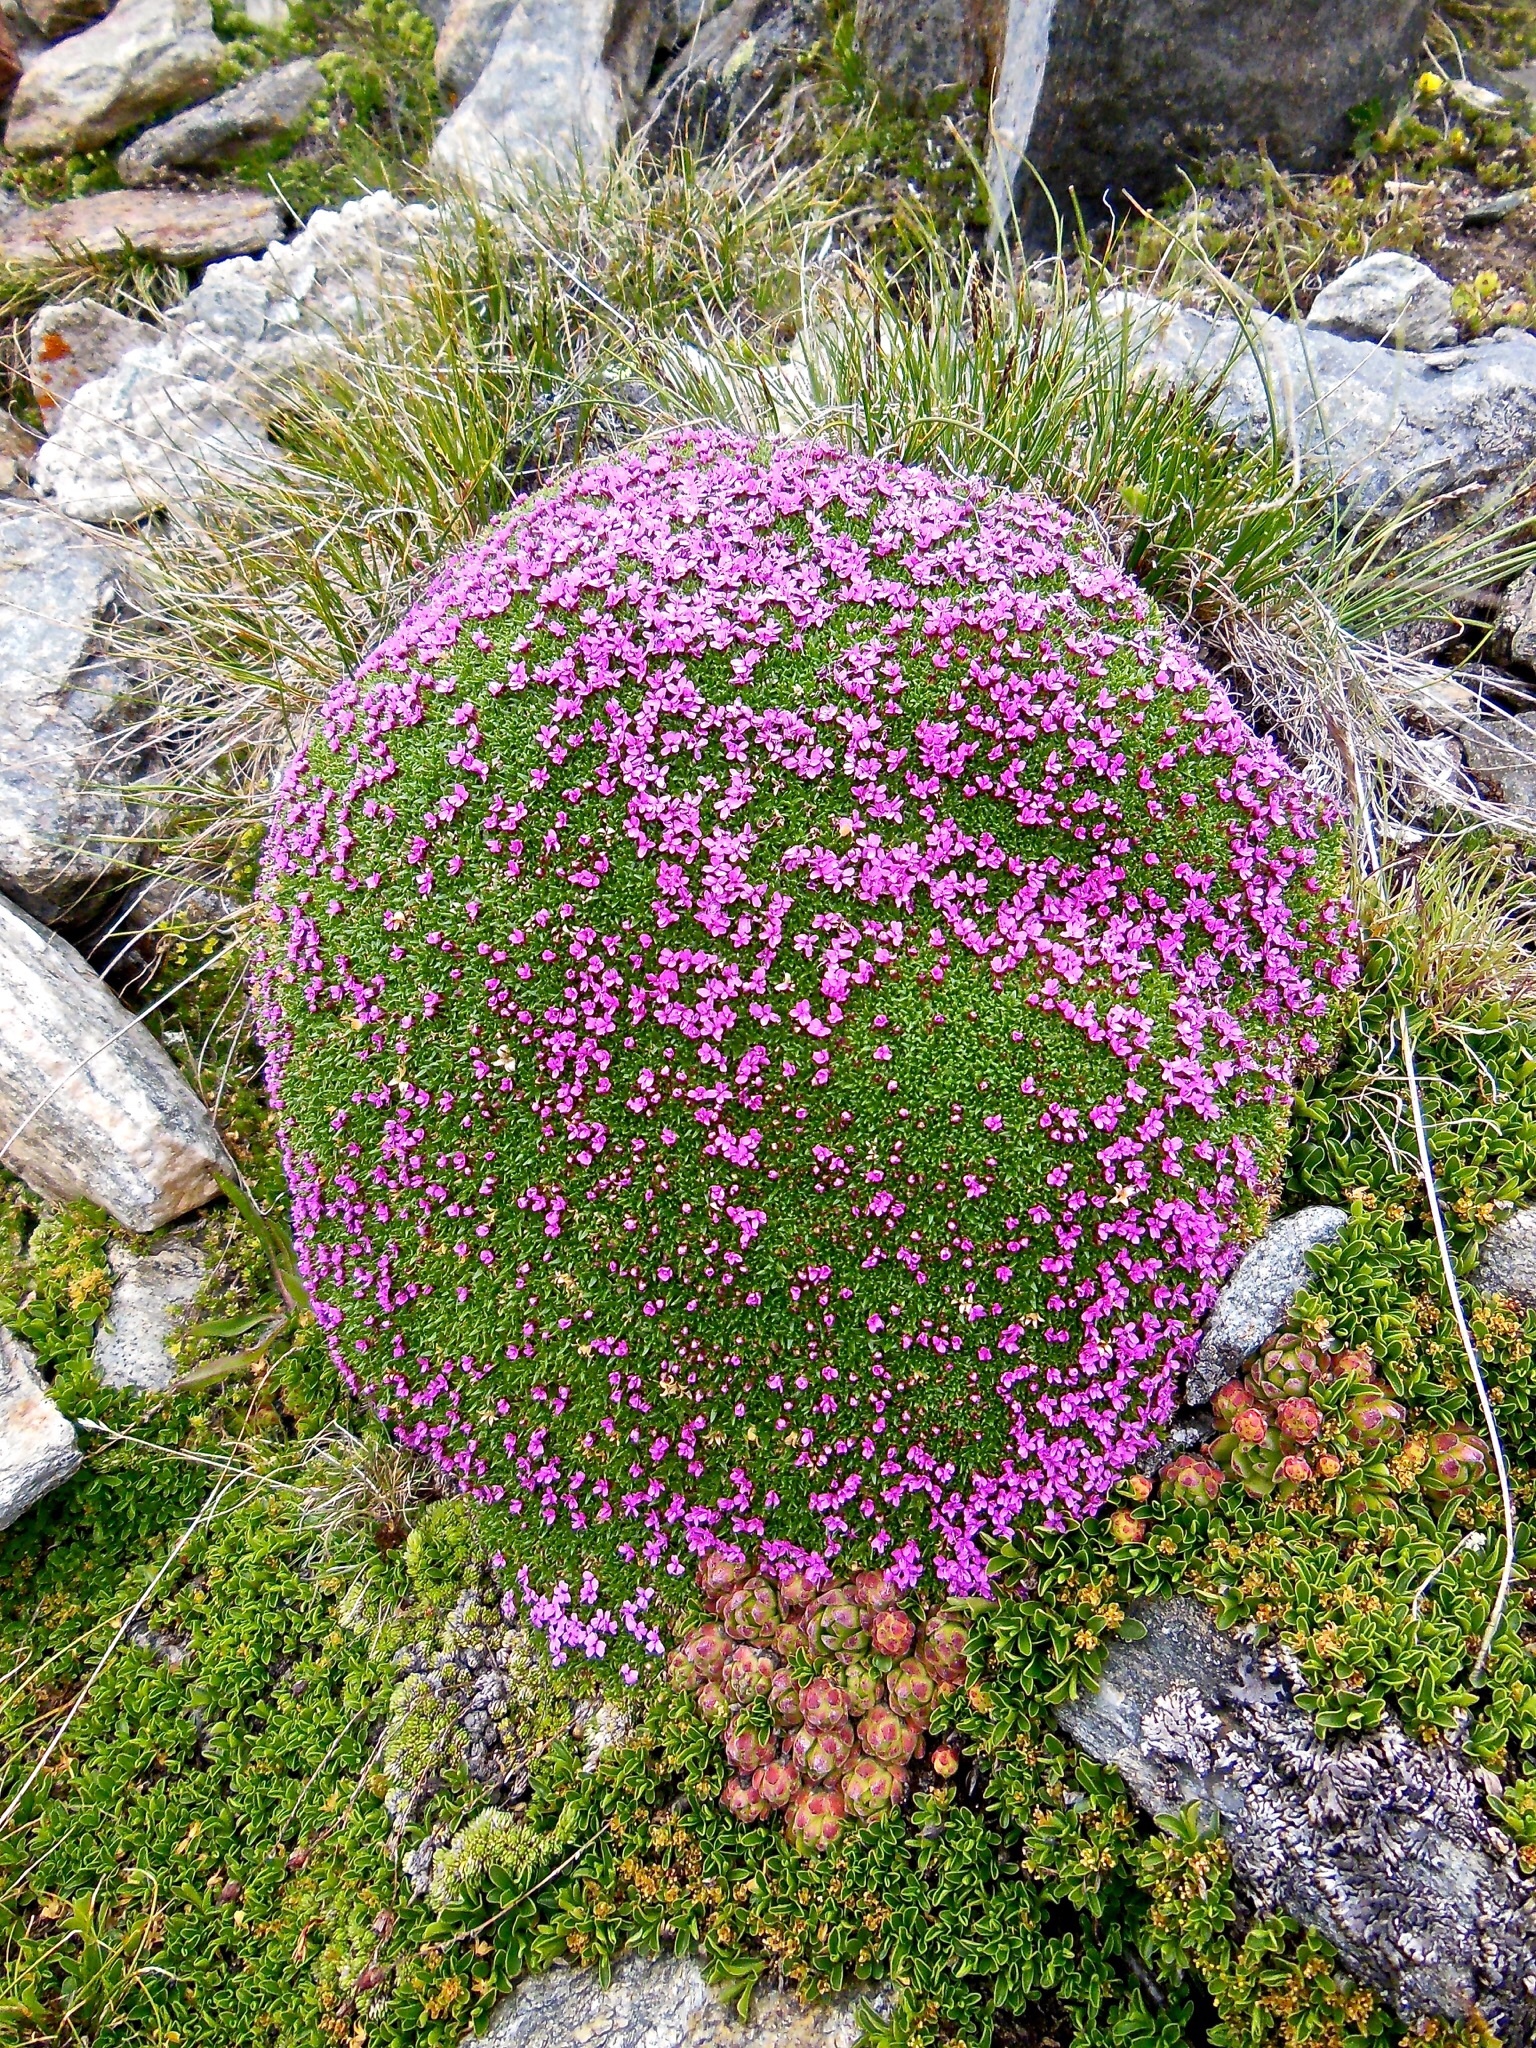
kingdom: Plantae
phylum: Tracheophyta
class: Magnoliopsida
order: Caryophyllales
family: Caryophyllaceae
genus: Silene
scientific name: Silene acaulis
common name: Moss campion
